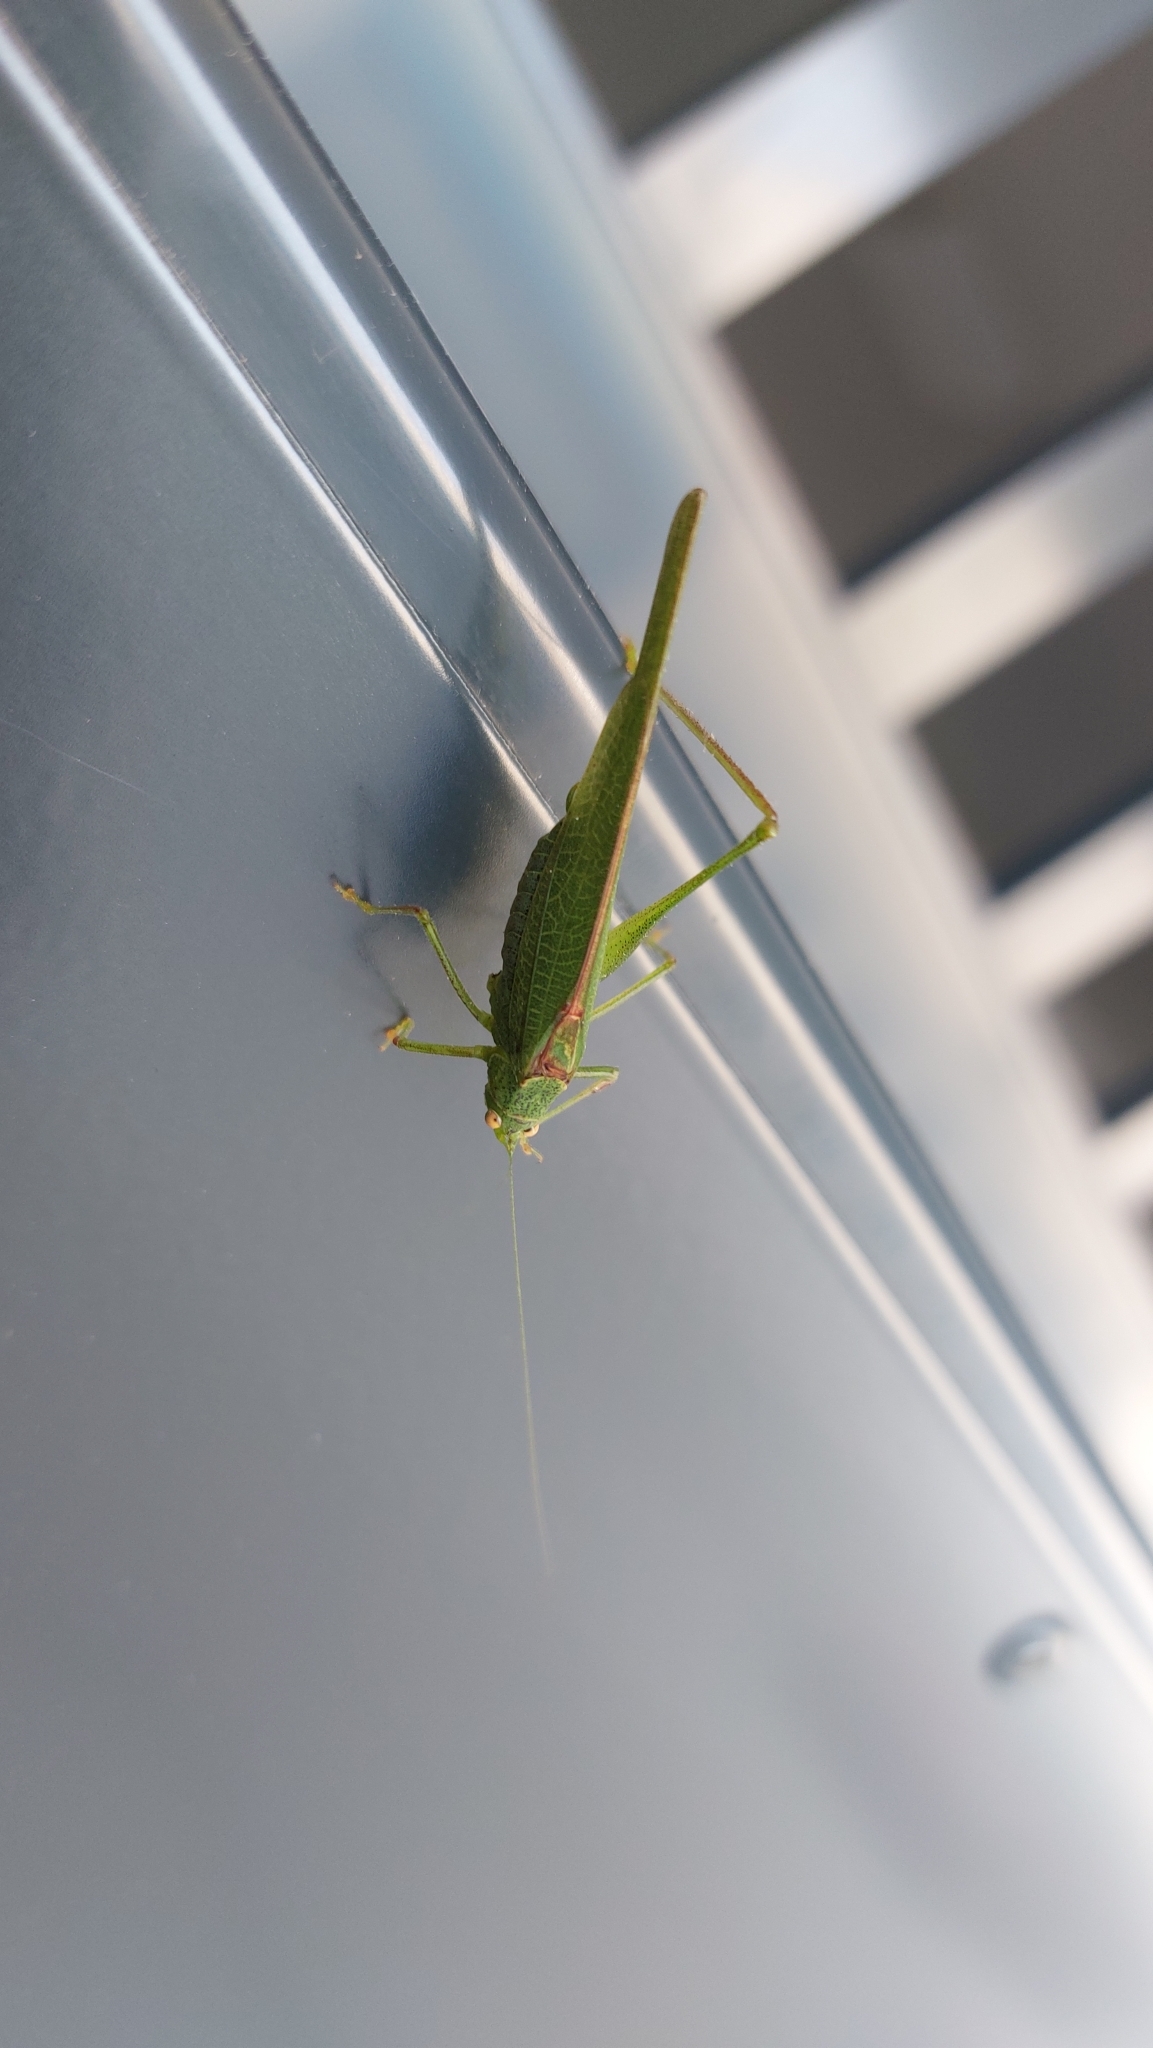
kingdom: Animalia
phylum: Arthropoda
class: Insecta
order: Orthoptera
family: Tettigoniidae
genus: Phaneroptera
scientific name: Phaneroptera nana
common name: Southern sickle bush-cricket
